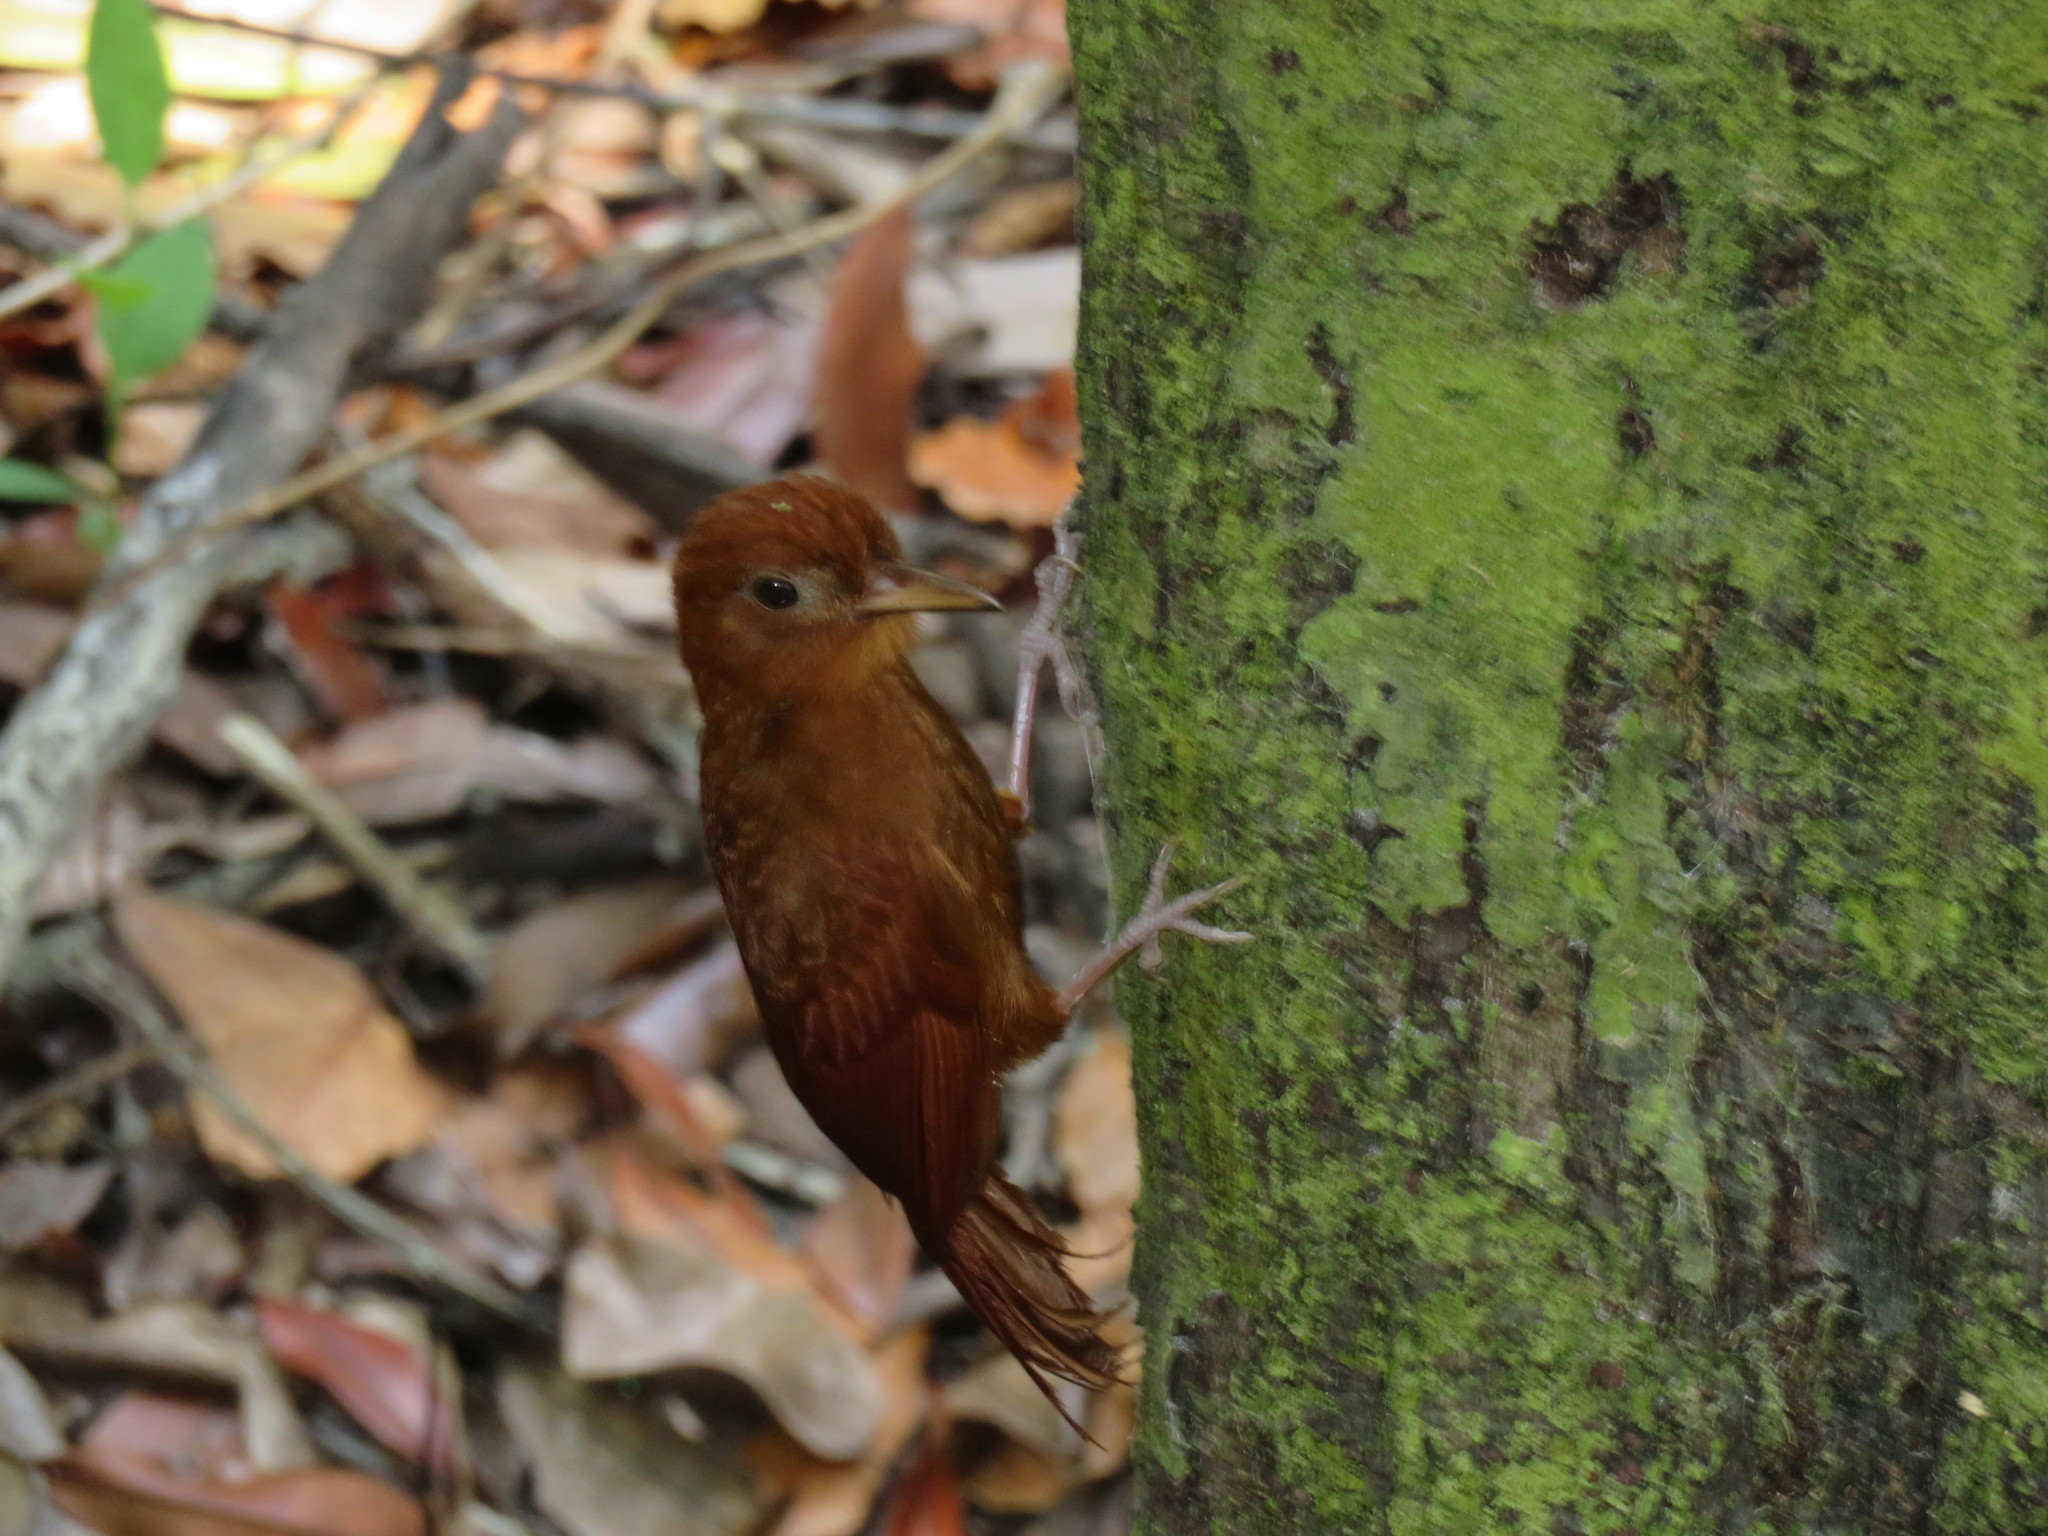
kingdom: Animalia
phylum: Chordata
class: Aves
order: Passeriformes
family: Furnariidae
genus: Dendrocincla
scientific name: Dendrocincla homochroa
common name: Ruddy woodcreeper
